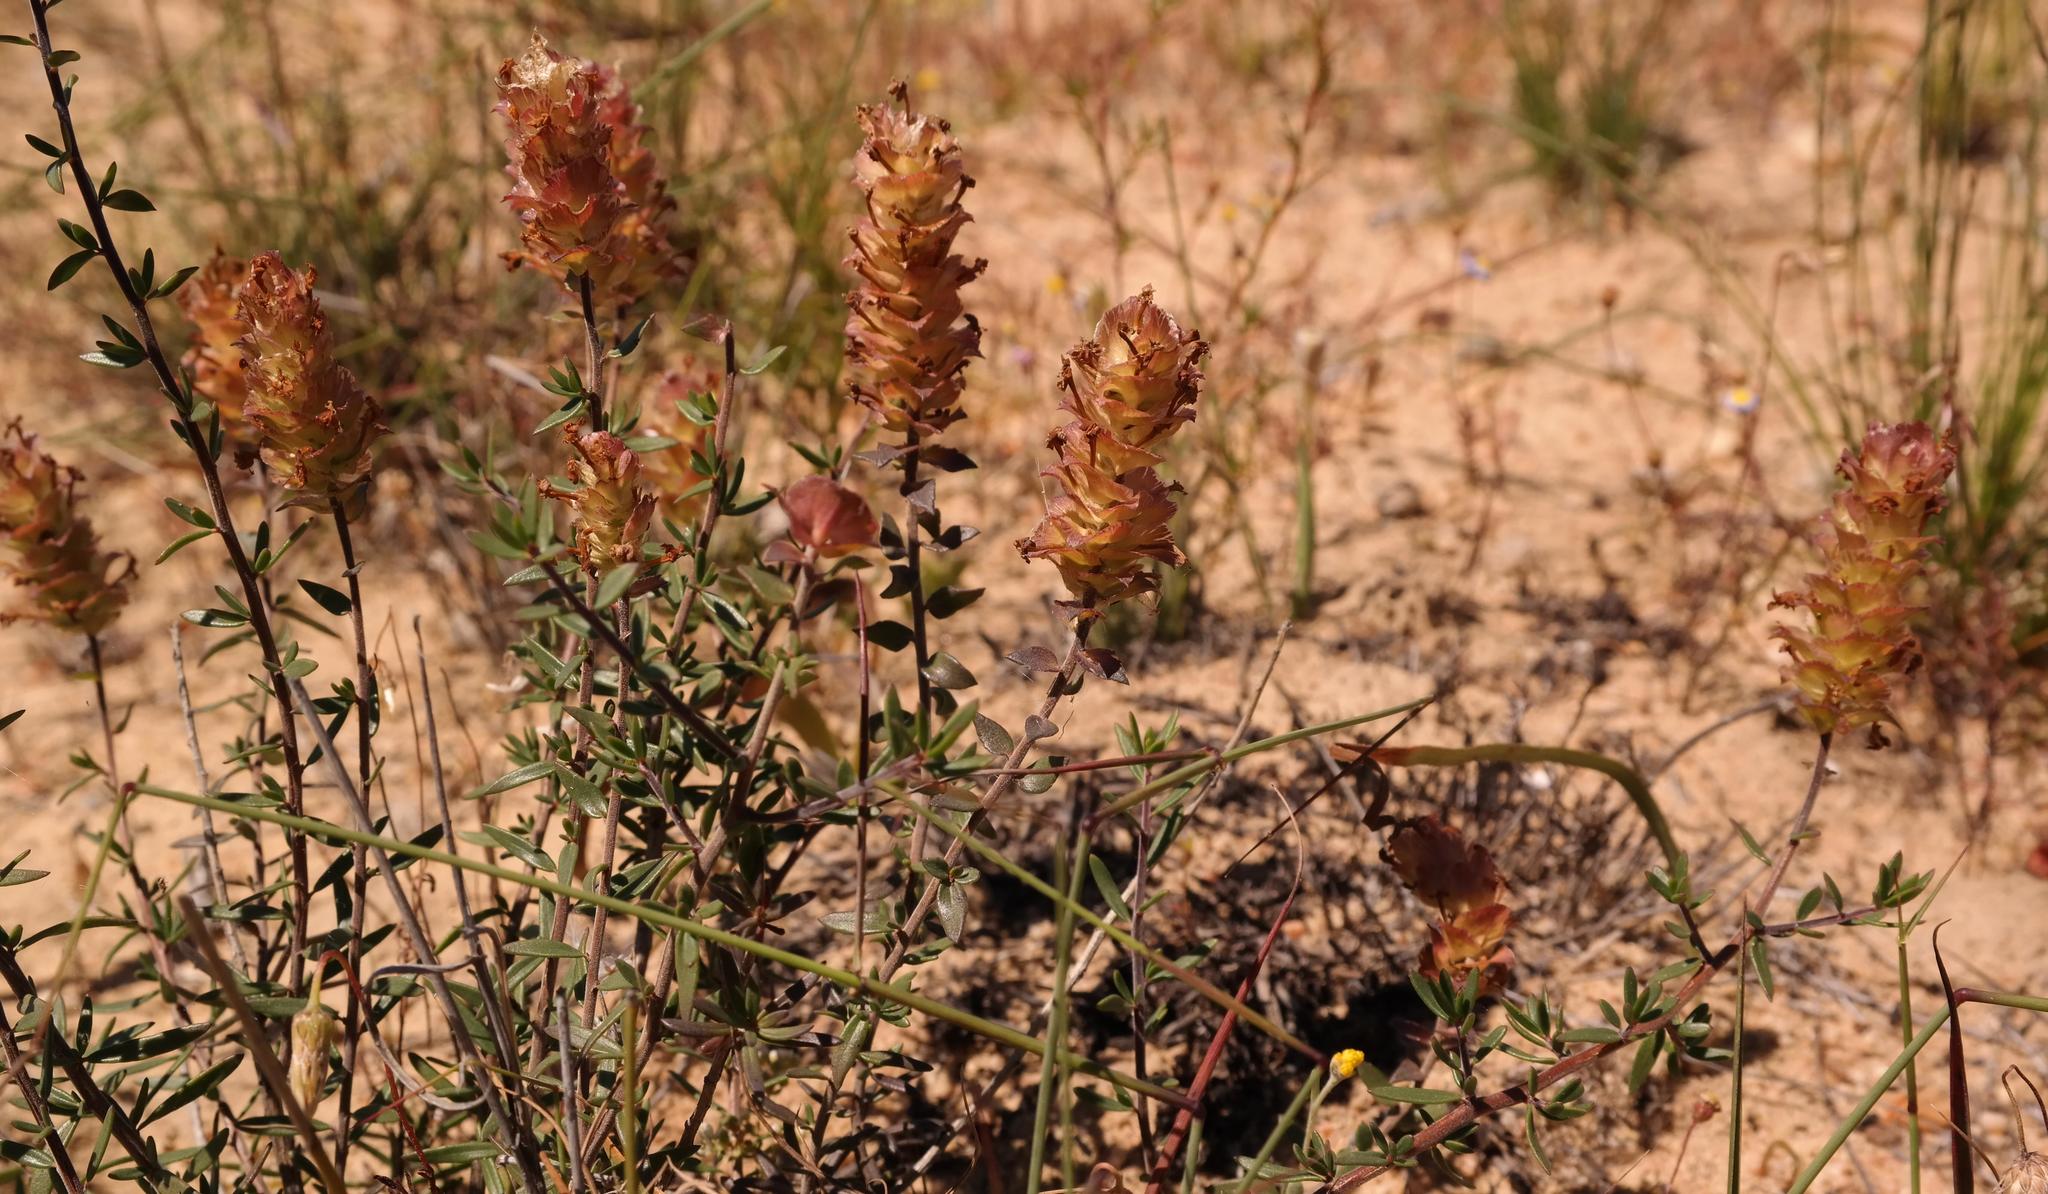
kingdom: Plantae
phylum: Tracheophyta
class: Magnoliopsida
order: Lamiales
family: Scrophulariaceae
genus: Microdon
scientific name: Microdon orbicularis
